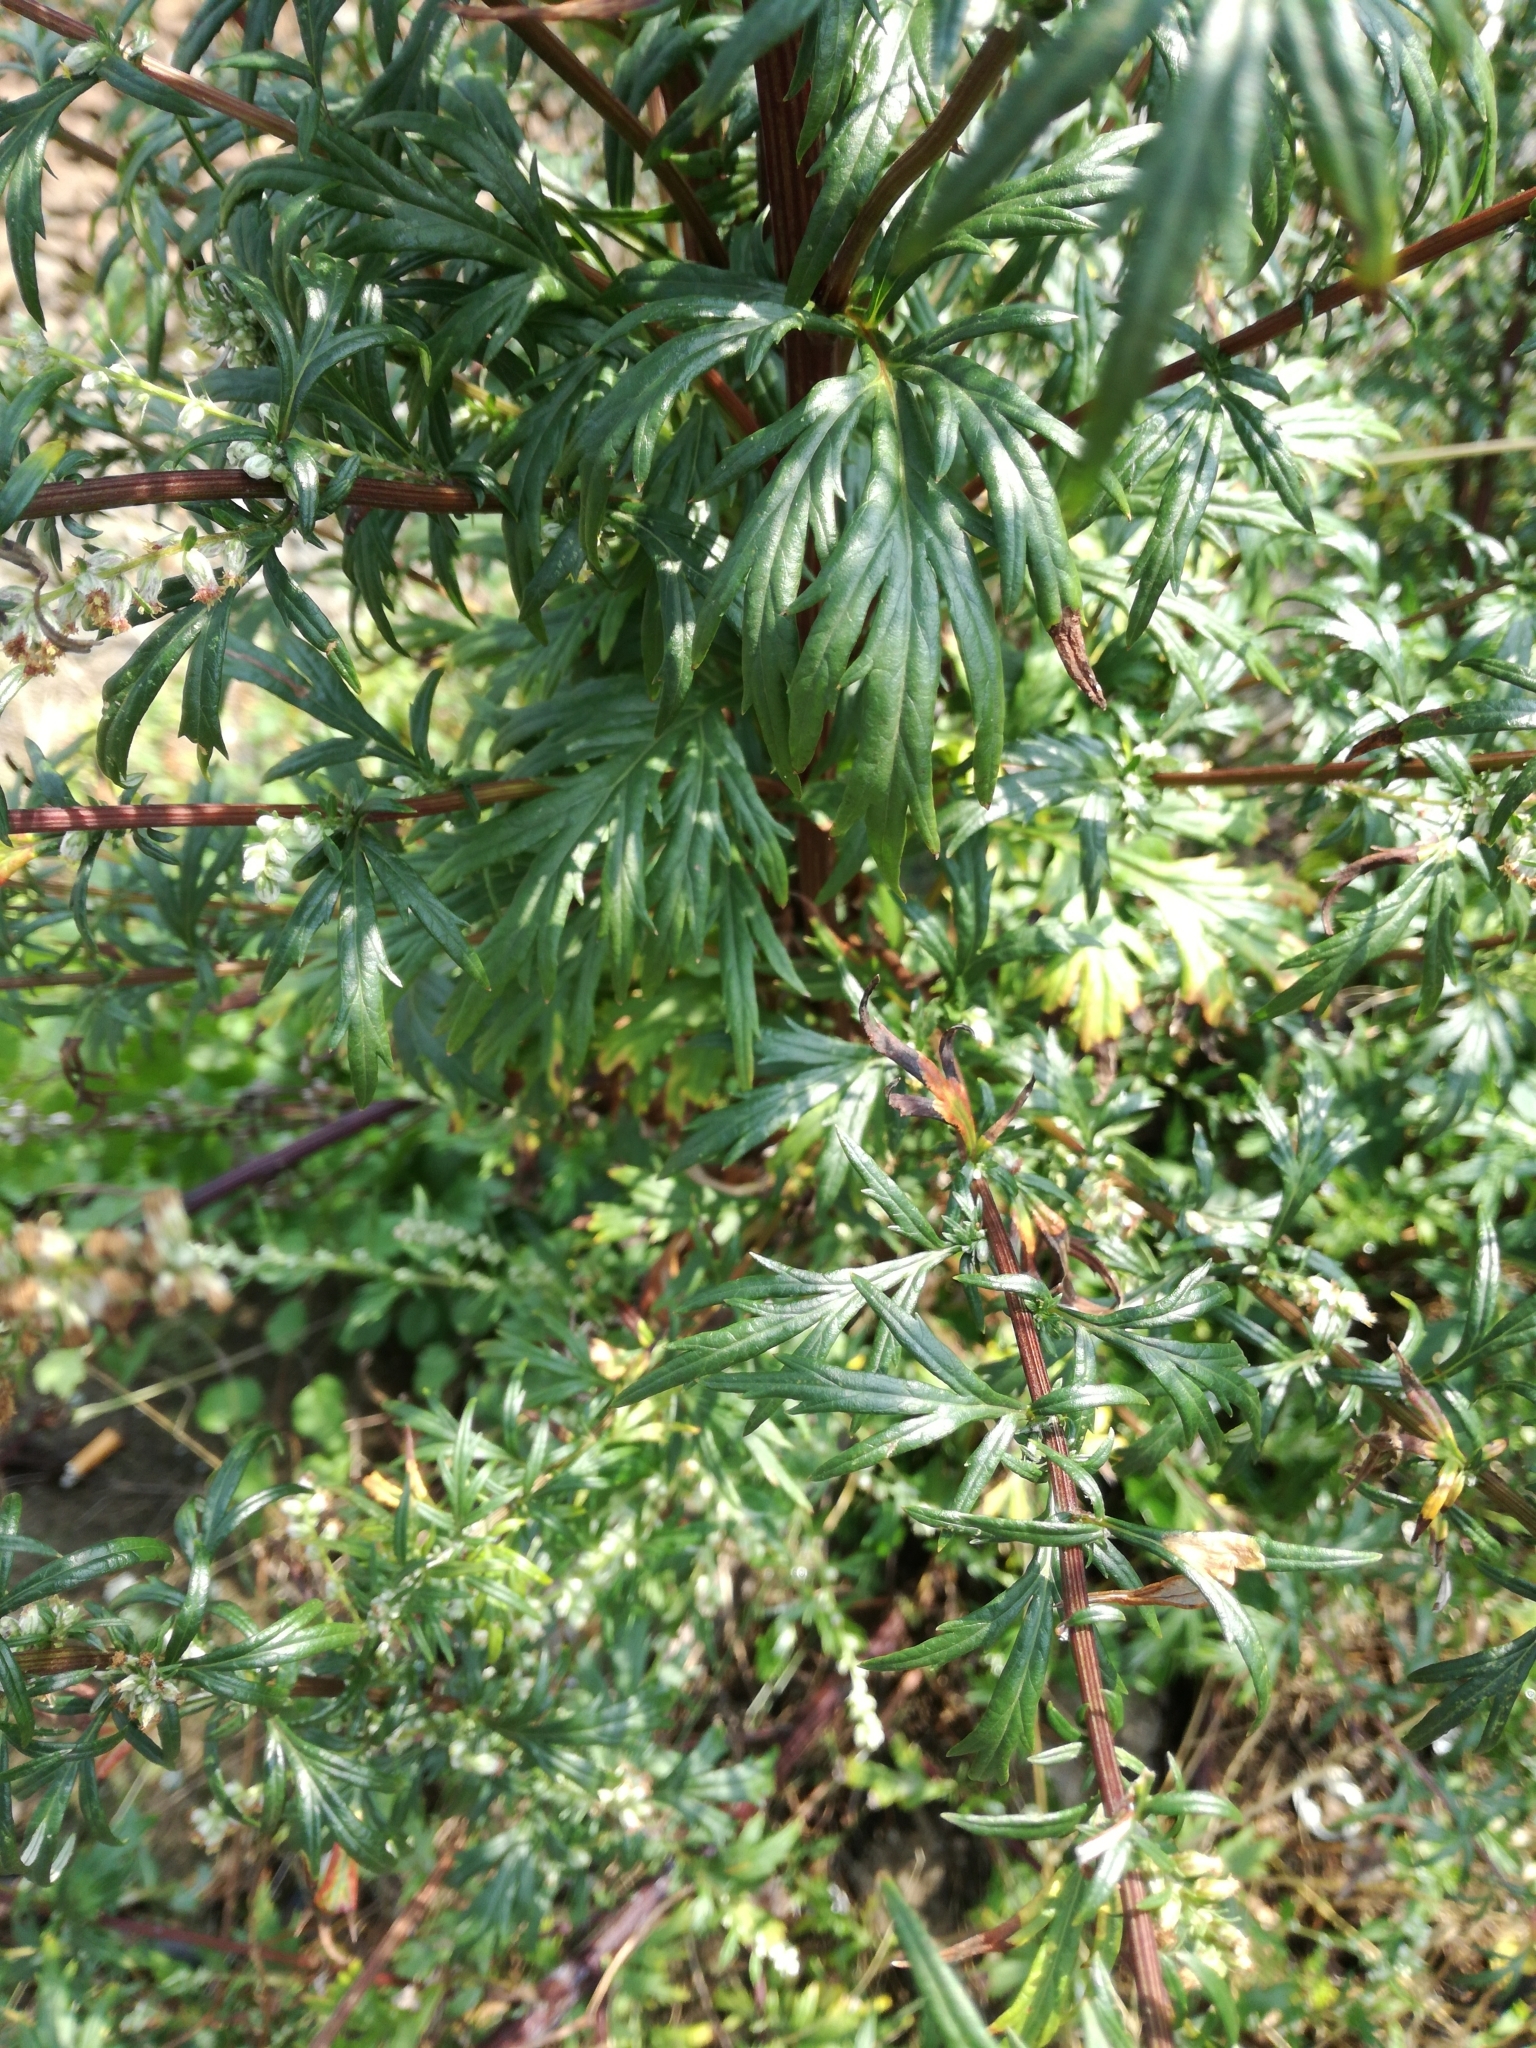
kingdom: Plantae
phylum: Tracheophyta
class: Magnoliopsida
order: Asterales
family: Asteraceae
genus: Artemisia
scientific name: Artemisia vulgaris
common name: Mugwort
